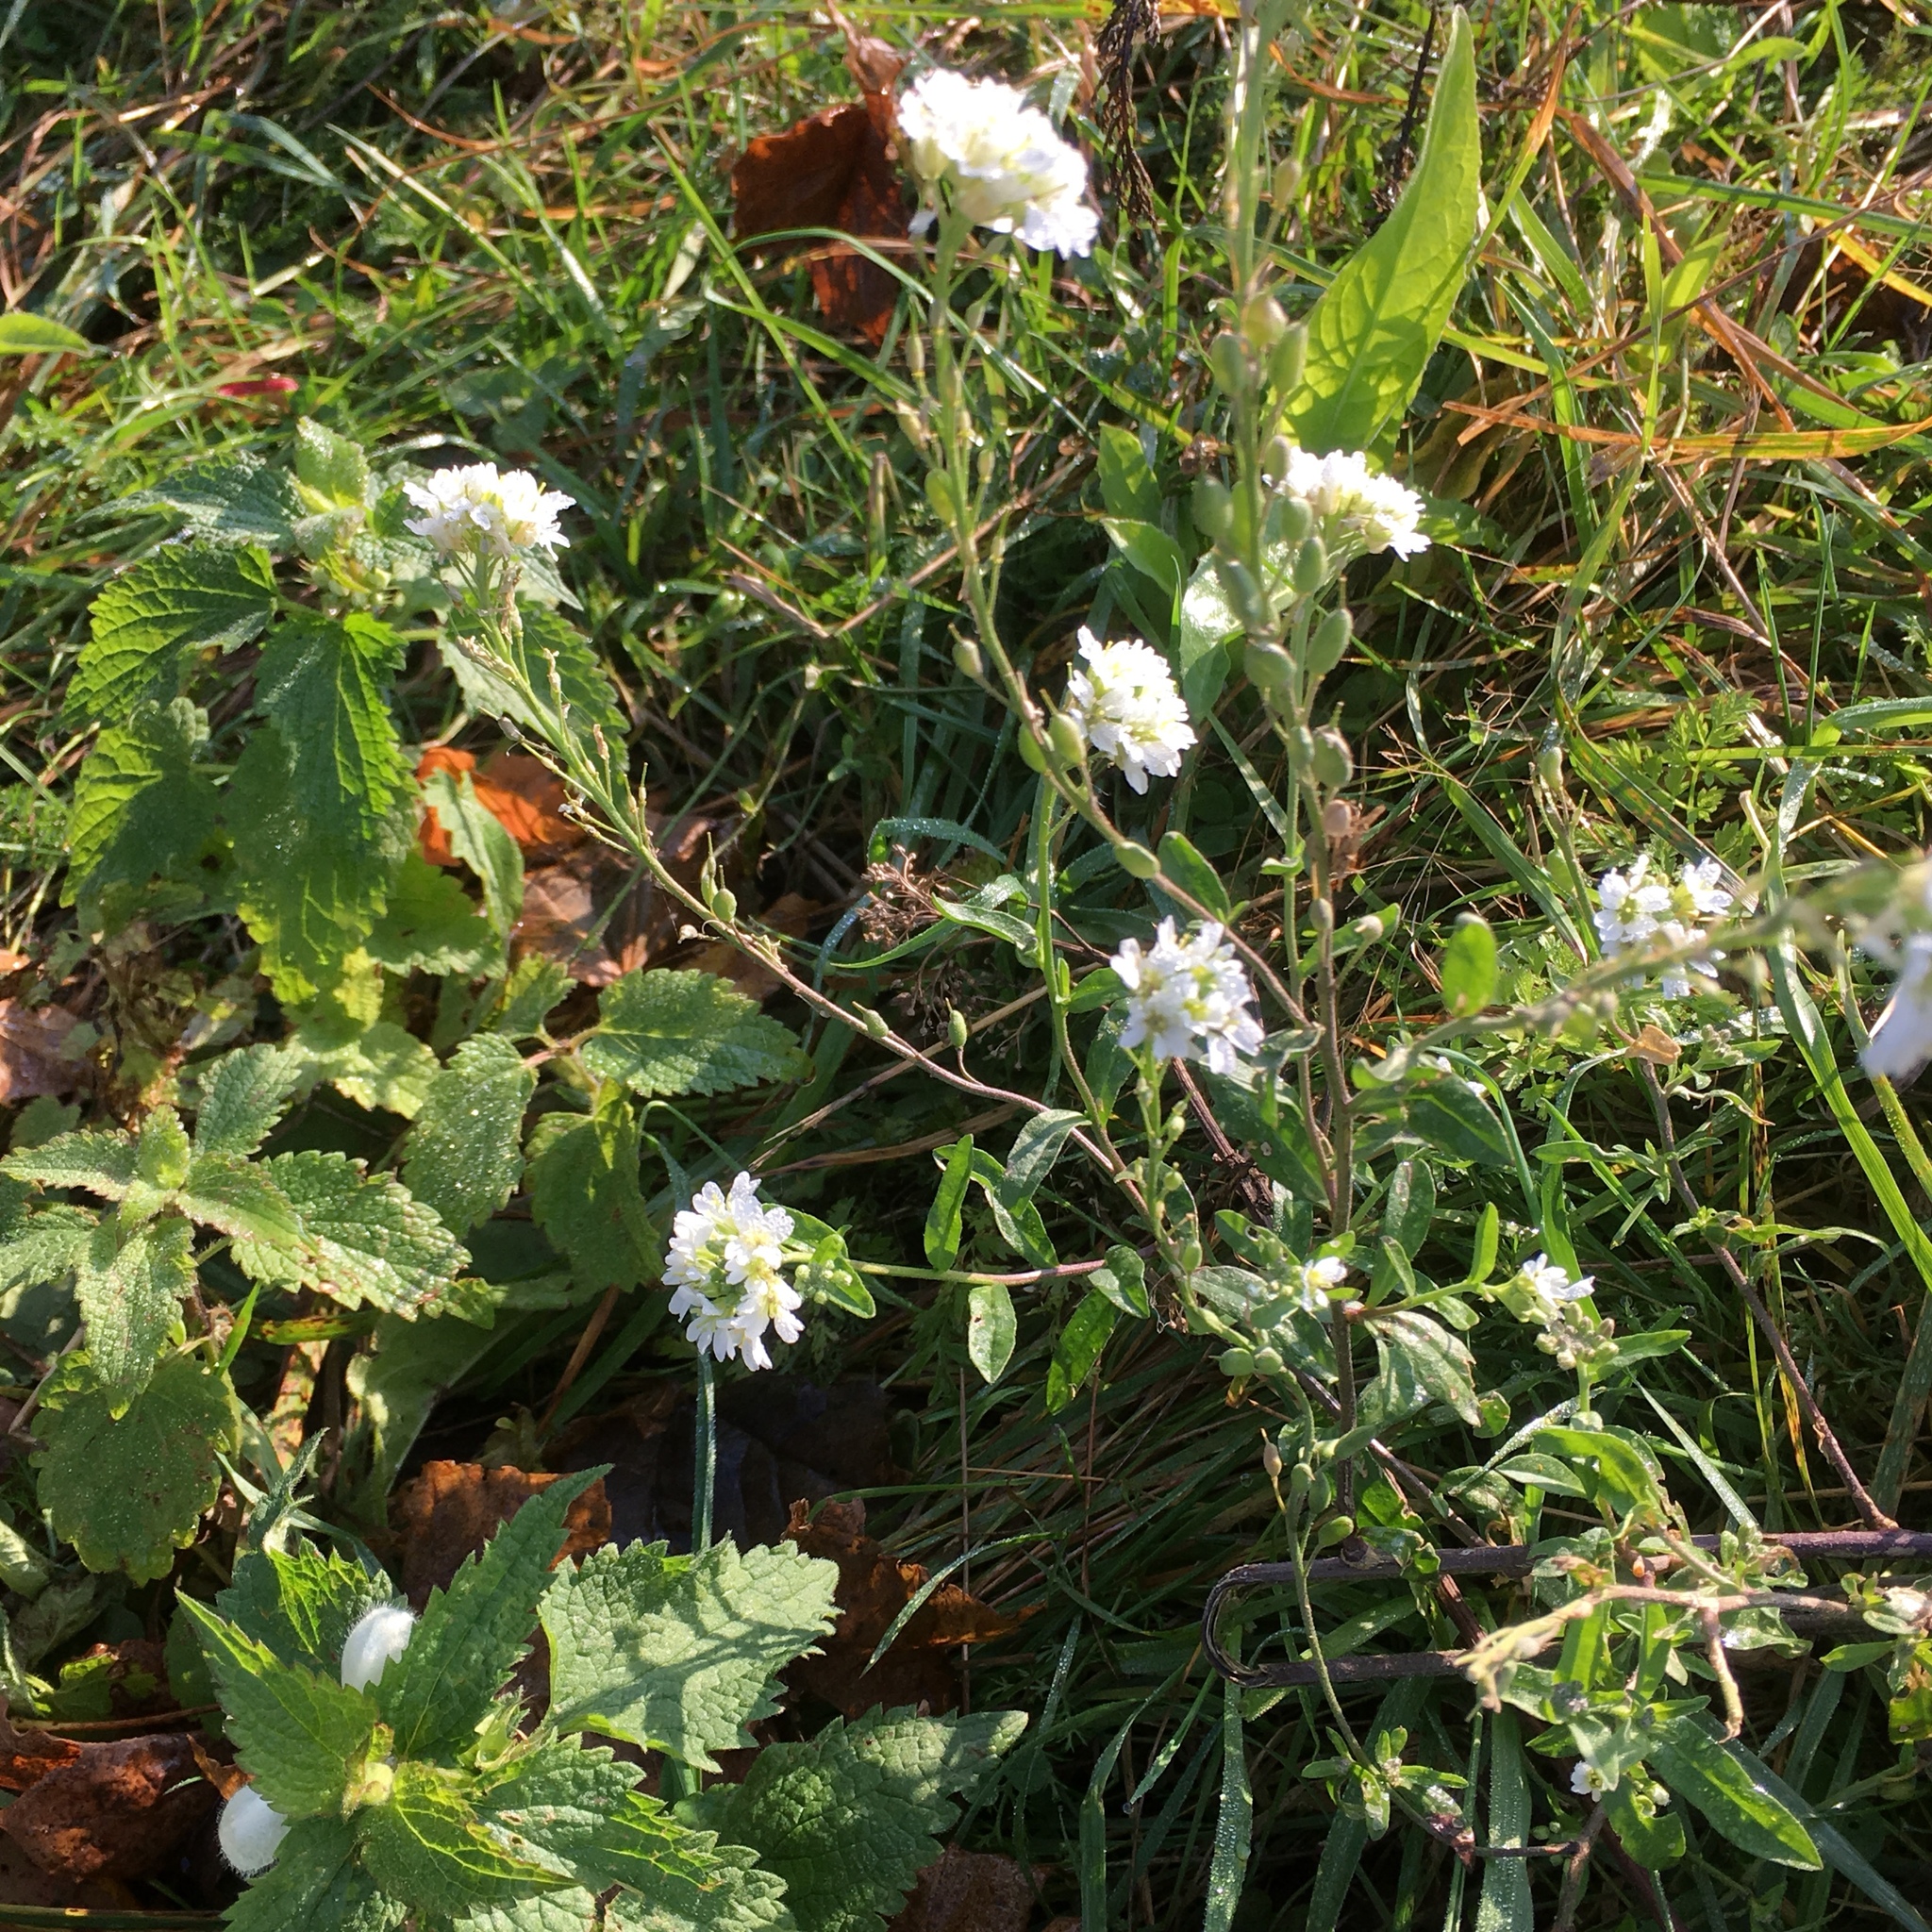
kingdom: Plantae
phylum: Tracheophyta
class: Magnoliopsida
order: Brassicales
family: Brassicaceae
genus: Berteroa
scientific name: Berteroa incana
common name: Hoary alison
